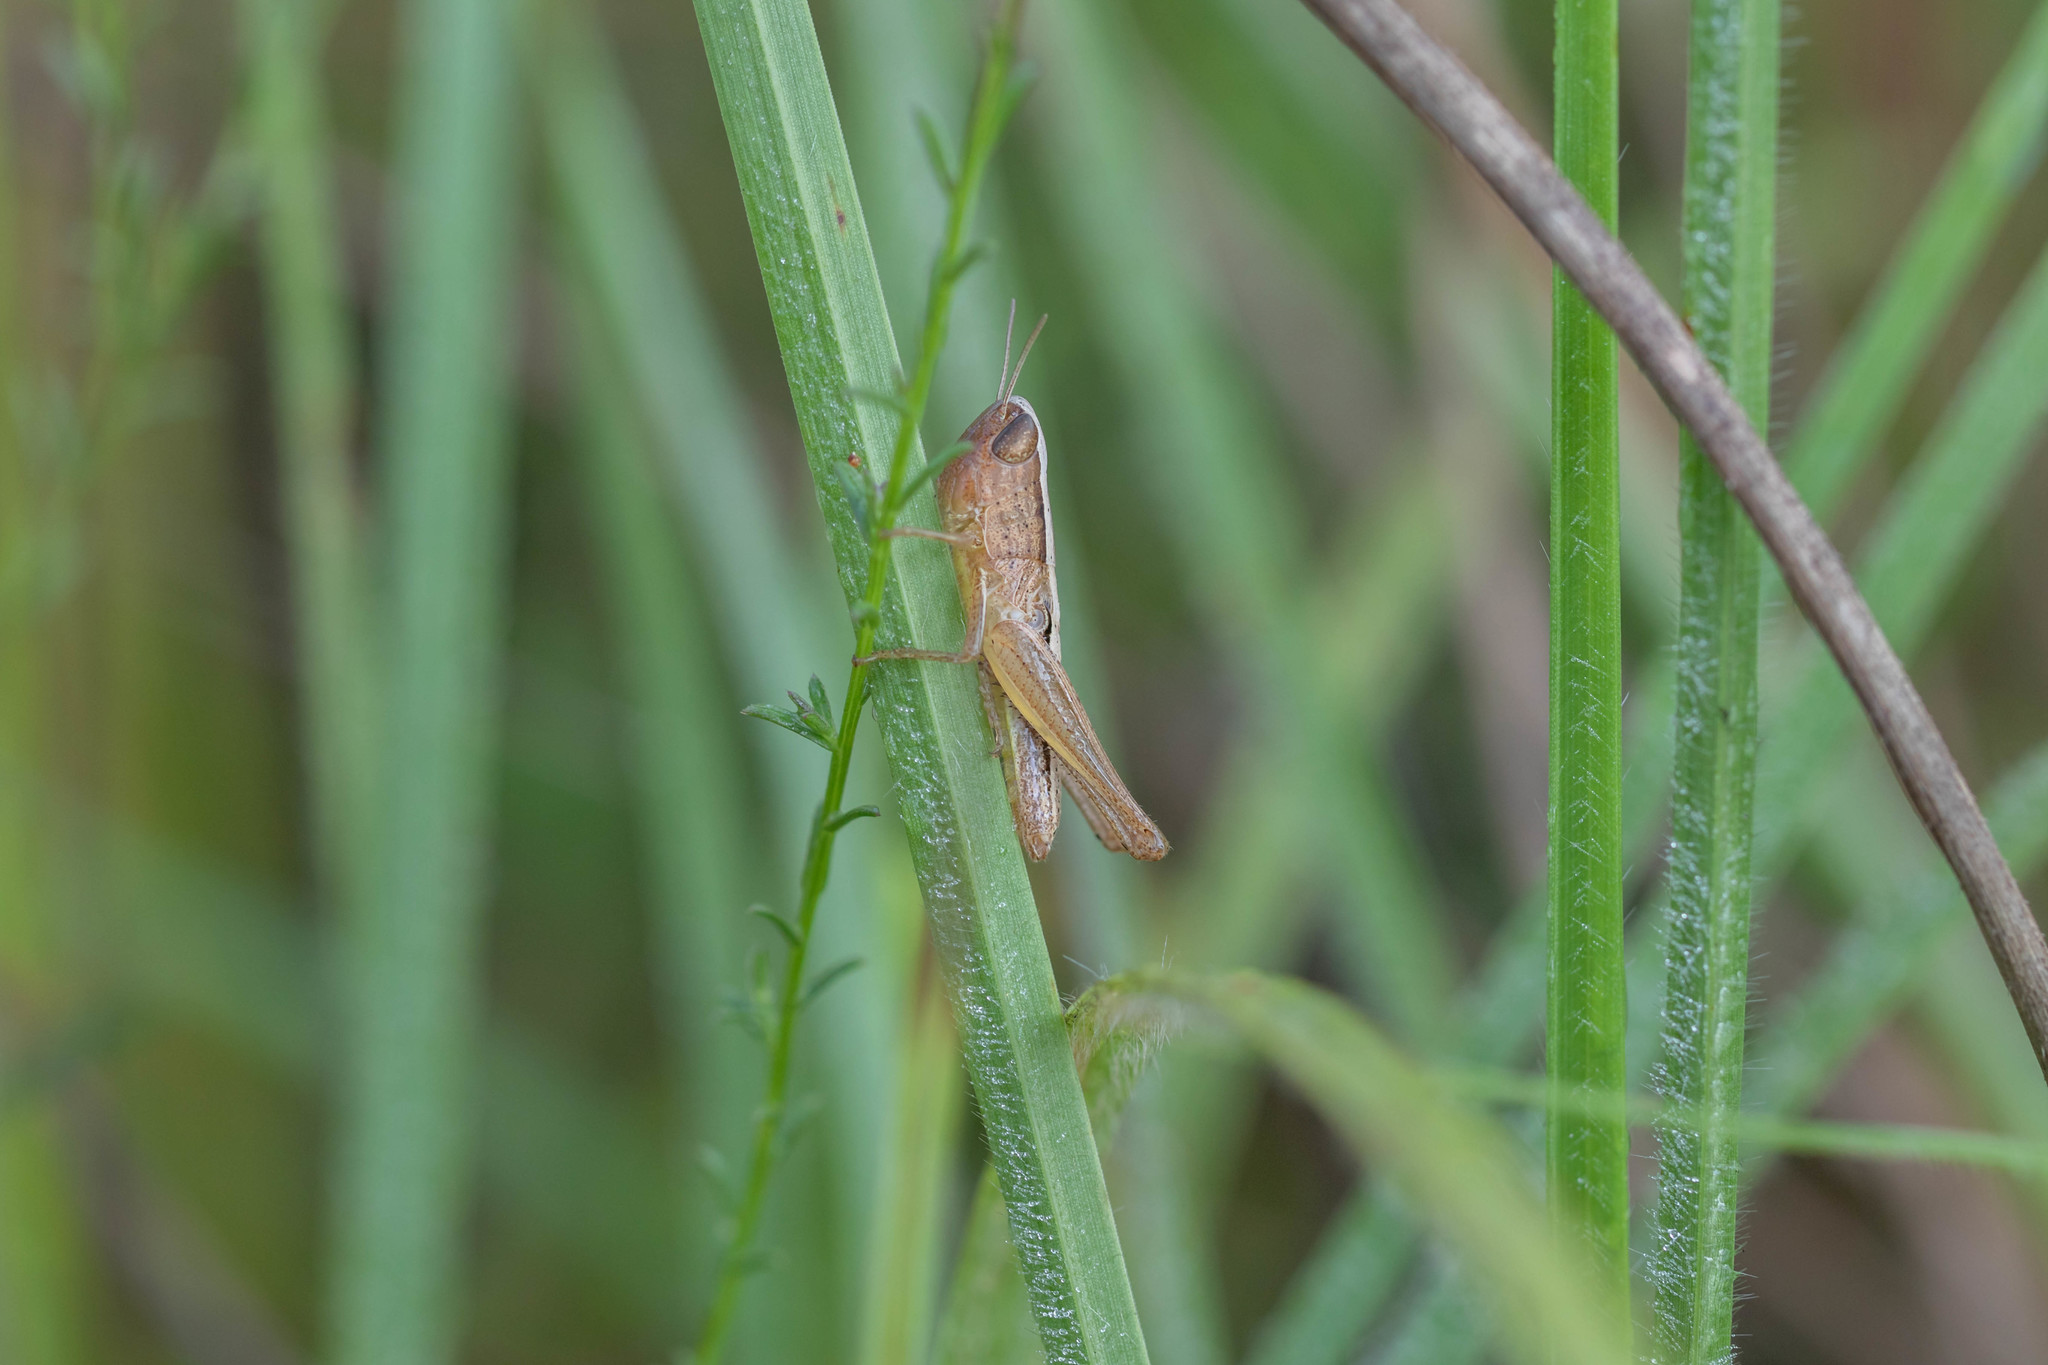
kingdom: Animalia
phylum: Arthropoda
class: Insecta
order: Orthoptera
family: Acrididae
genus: Amblytropidia
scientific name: Amblytropidia mysteca
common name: Brown winter grasshopper
